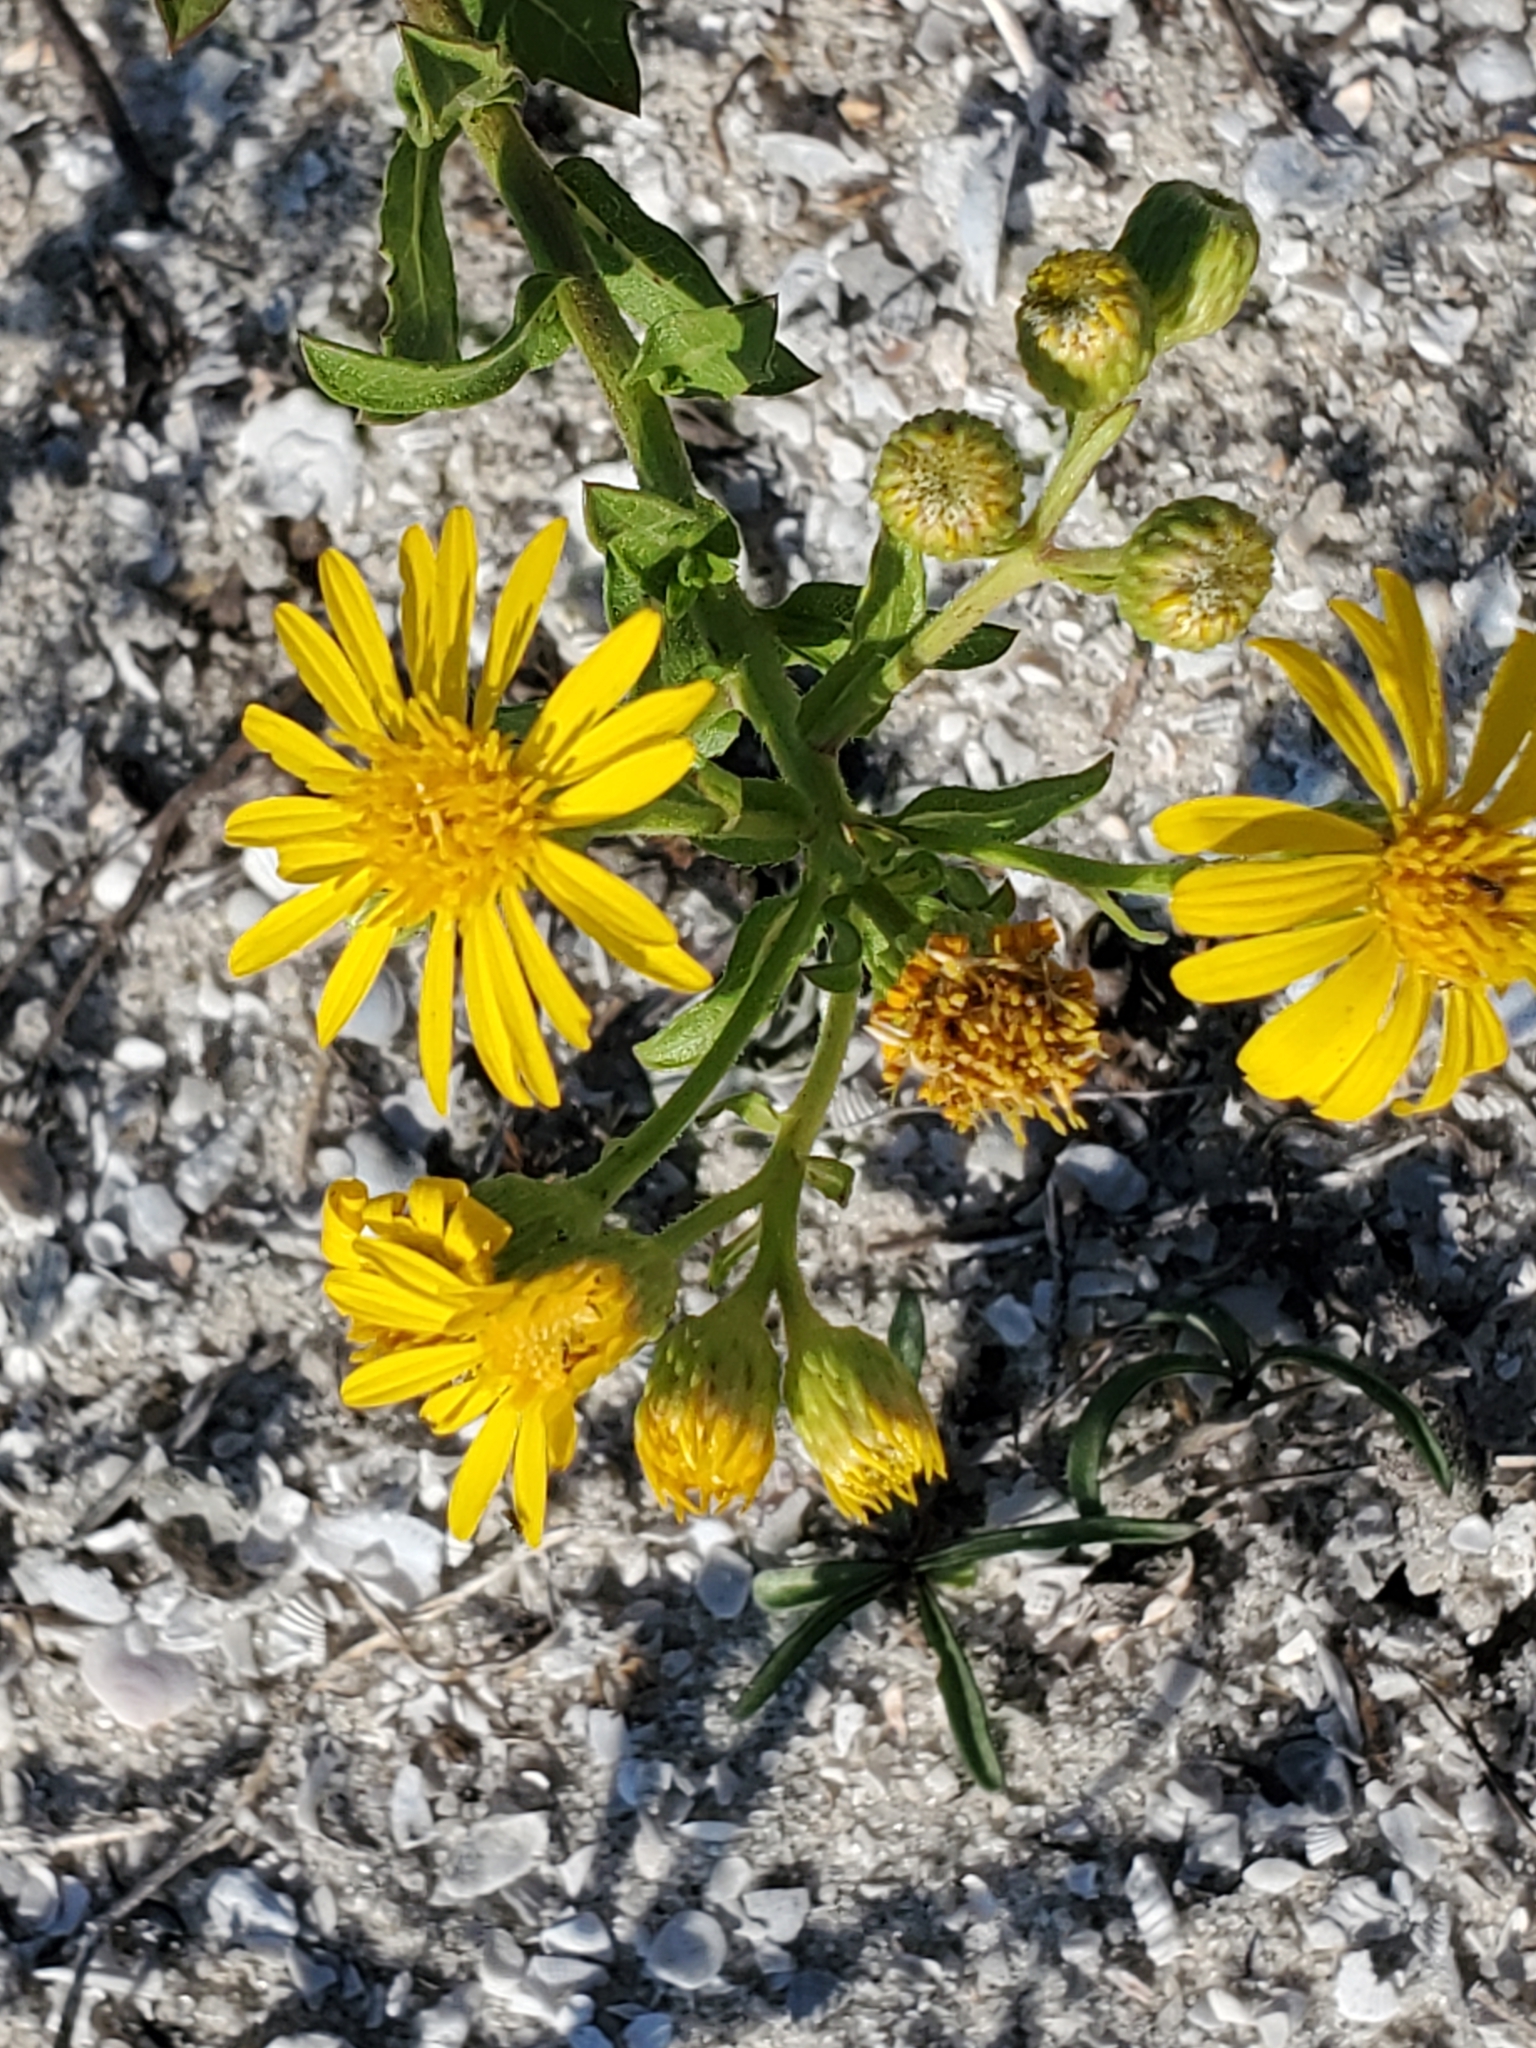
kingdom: Plantae
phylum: Tracheophyta
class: Magnoliopsida
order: Asterales
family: Asteraceae
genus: Heterotheca
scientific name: Heterotheca subaxillaris
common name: Camphorweed
